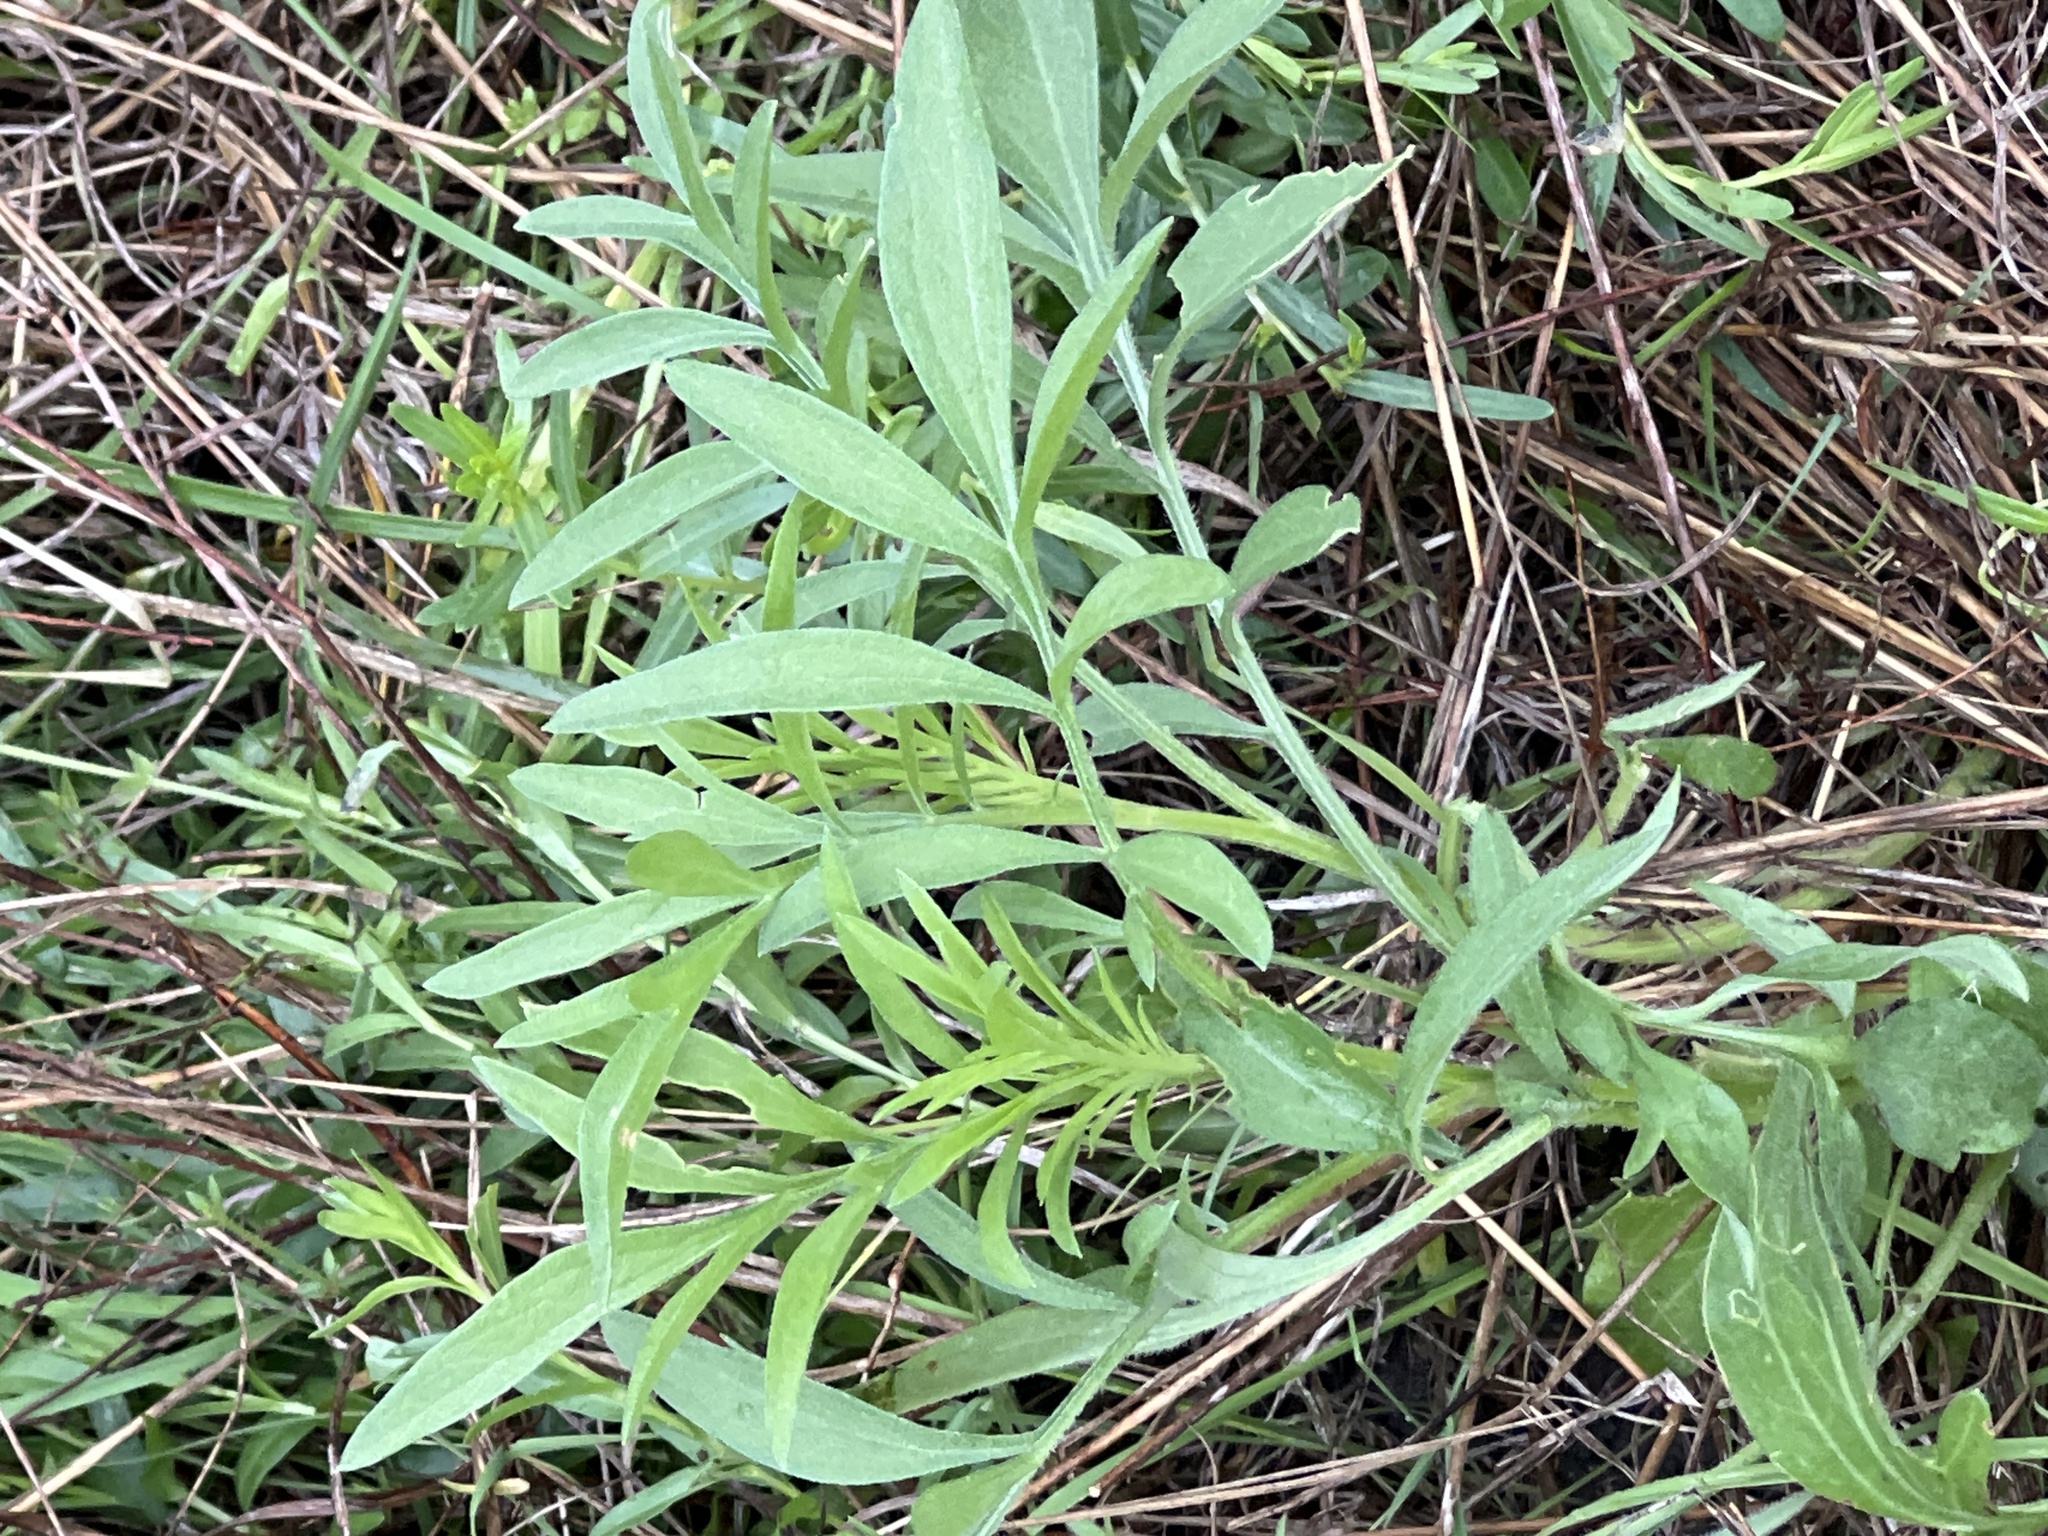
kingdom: Plantae
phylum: Tracheophyta
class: Magnoliopsida
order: Asterales
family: Asteraceae
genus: Ratibida
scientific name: Ratibida columnifera
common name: Prairie coneflower
